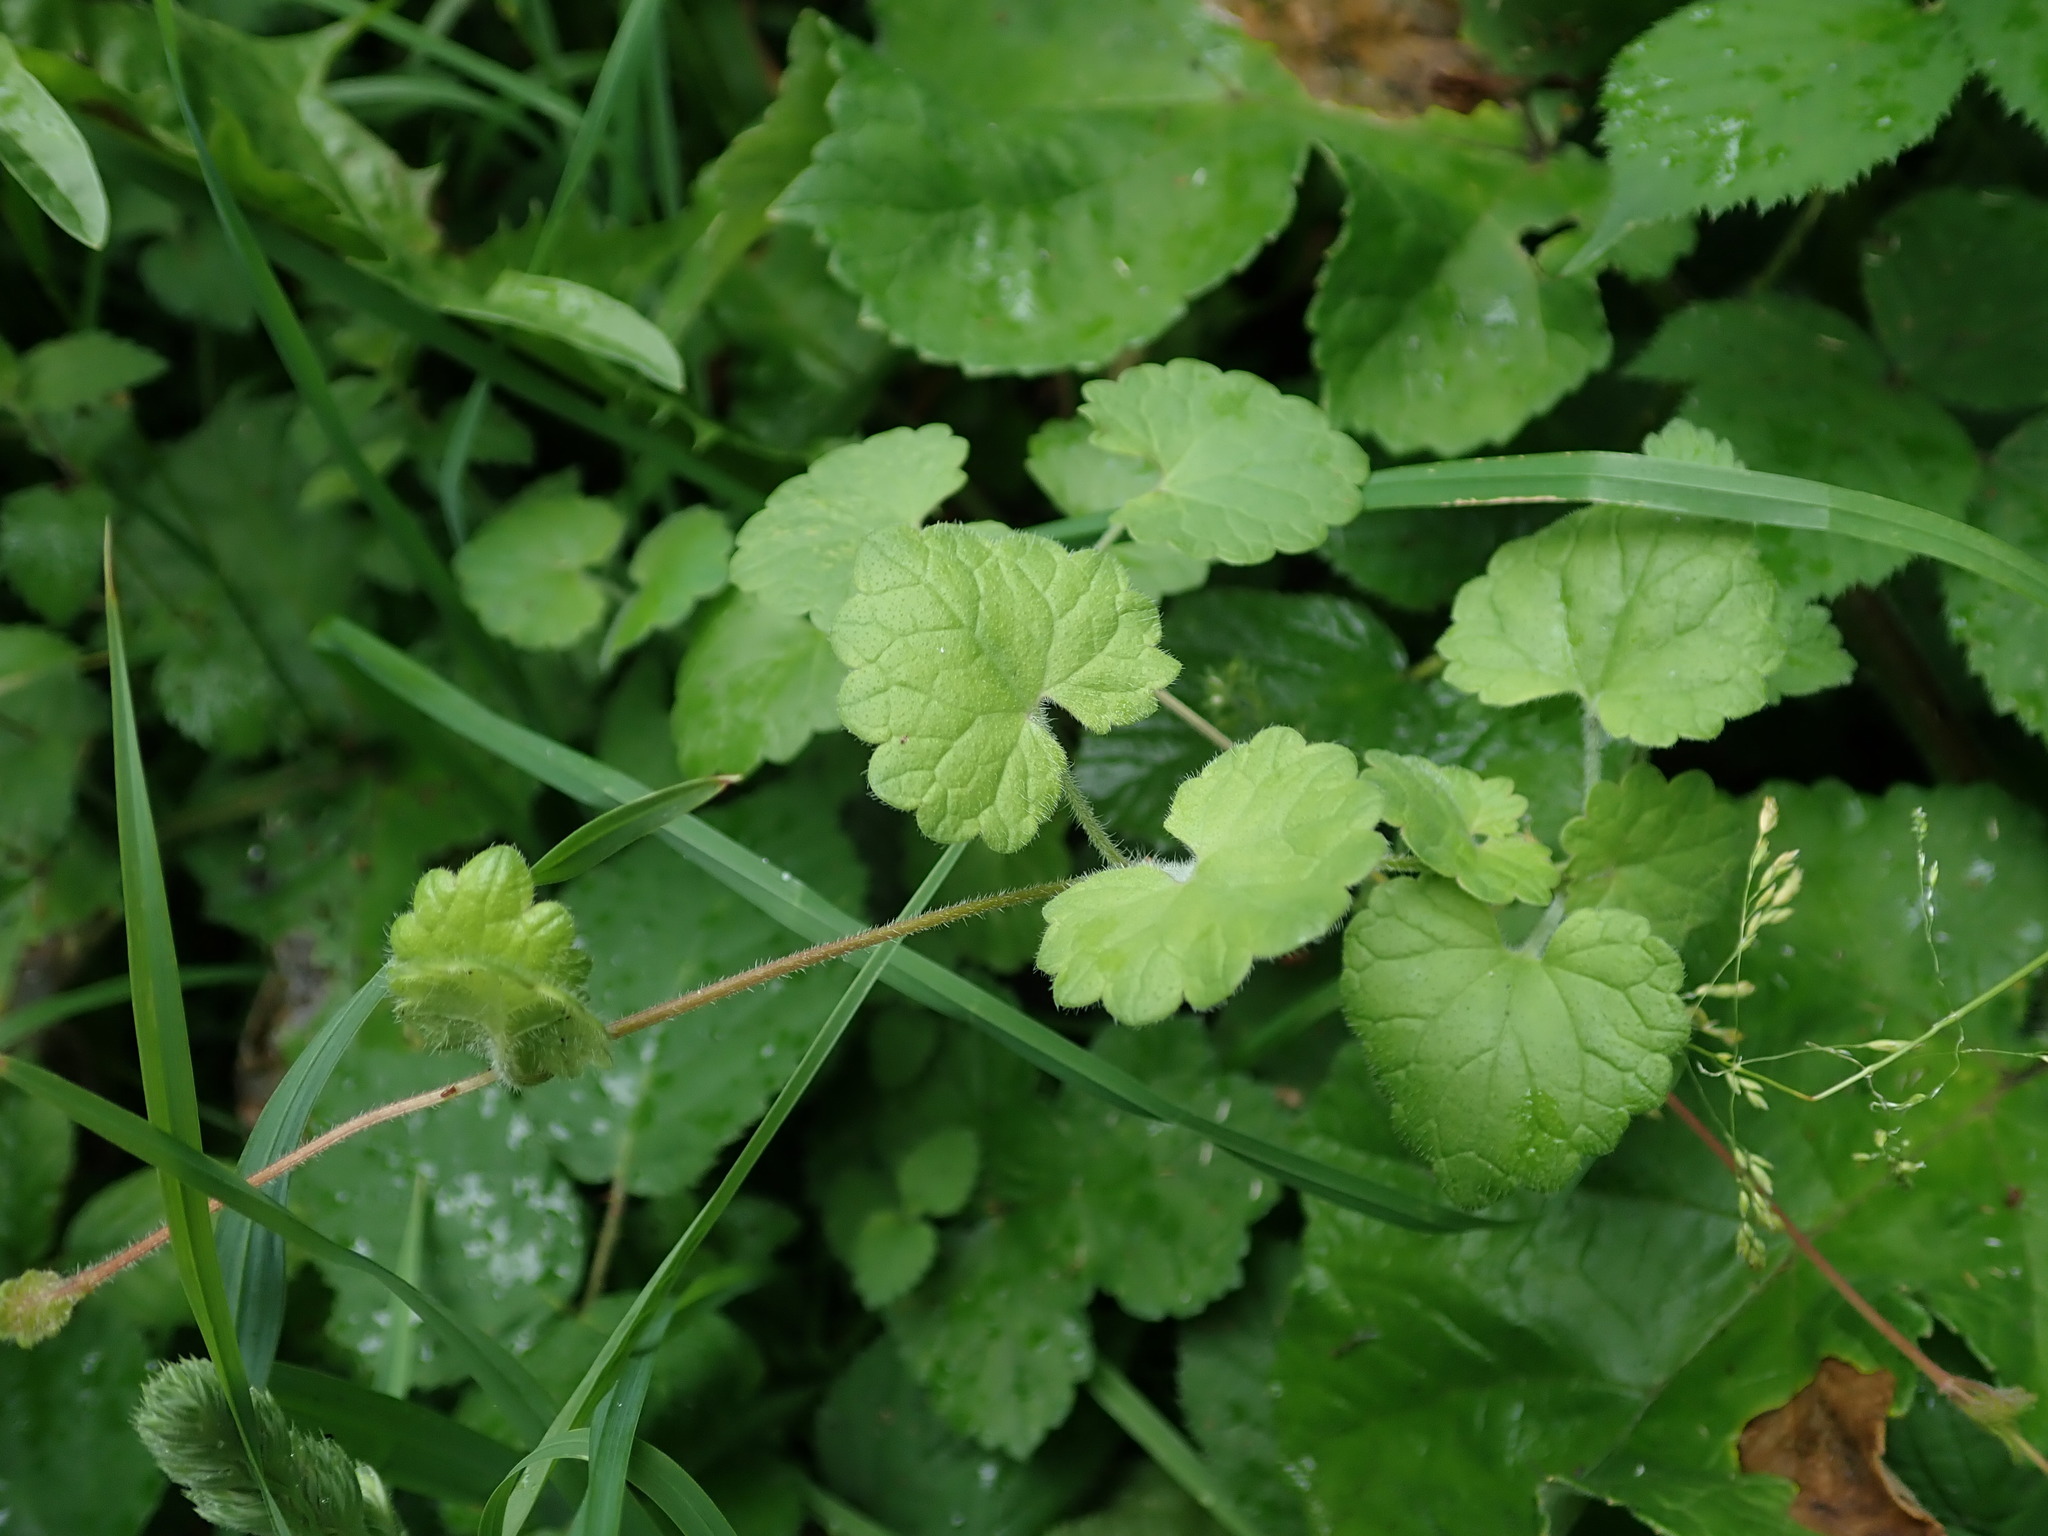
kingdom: Plantae
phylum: Tracheophyta
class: Magnoliopsida
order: Lamiales
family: Lamiaceae
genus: Glechoma
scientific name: Glechoma hederacea
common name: Ground ivy
